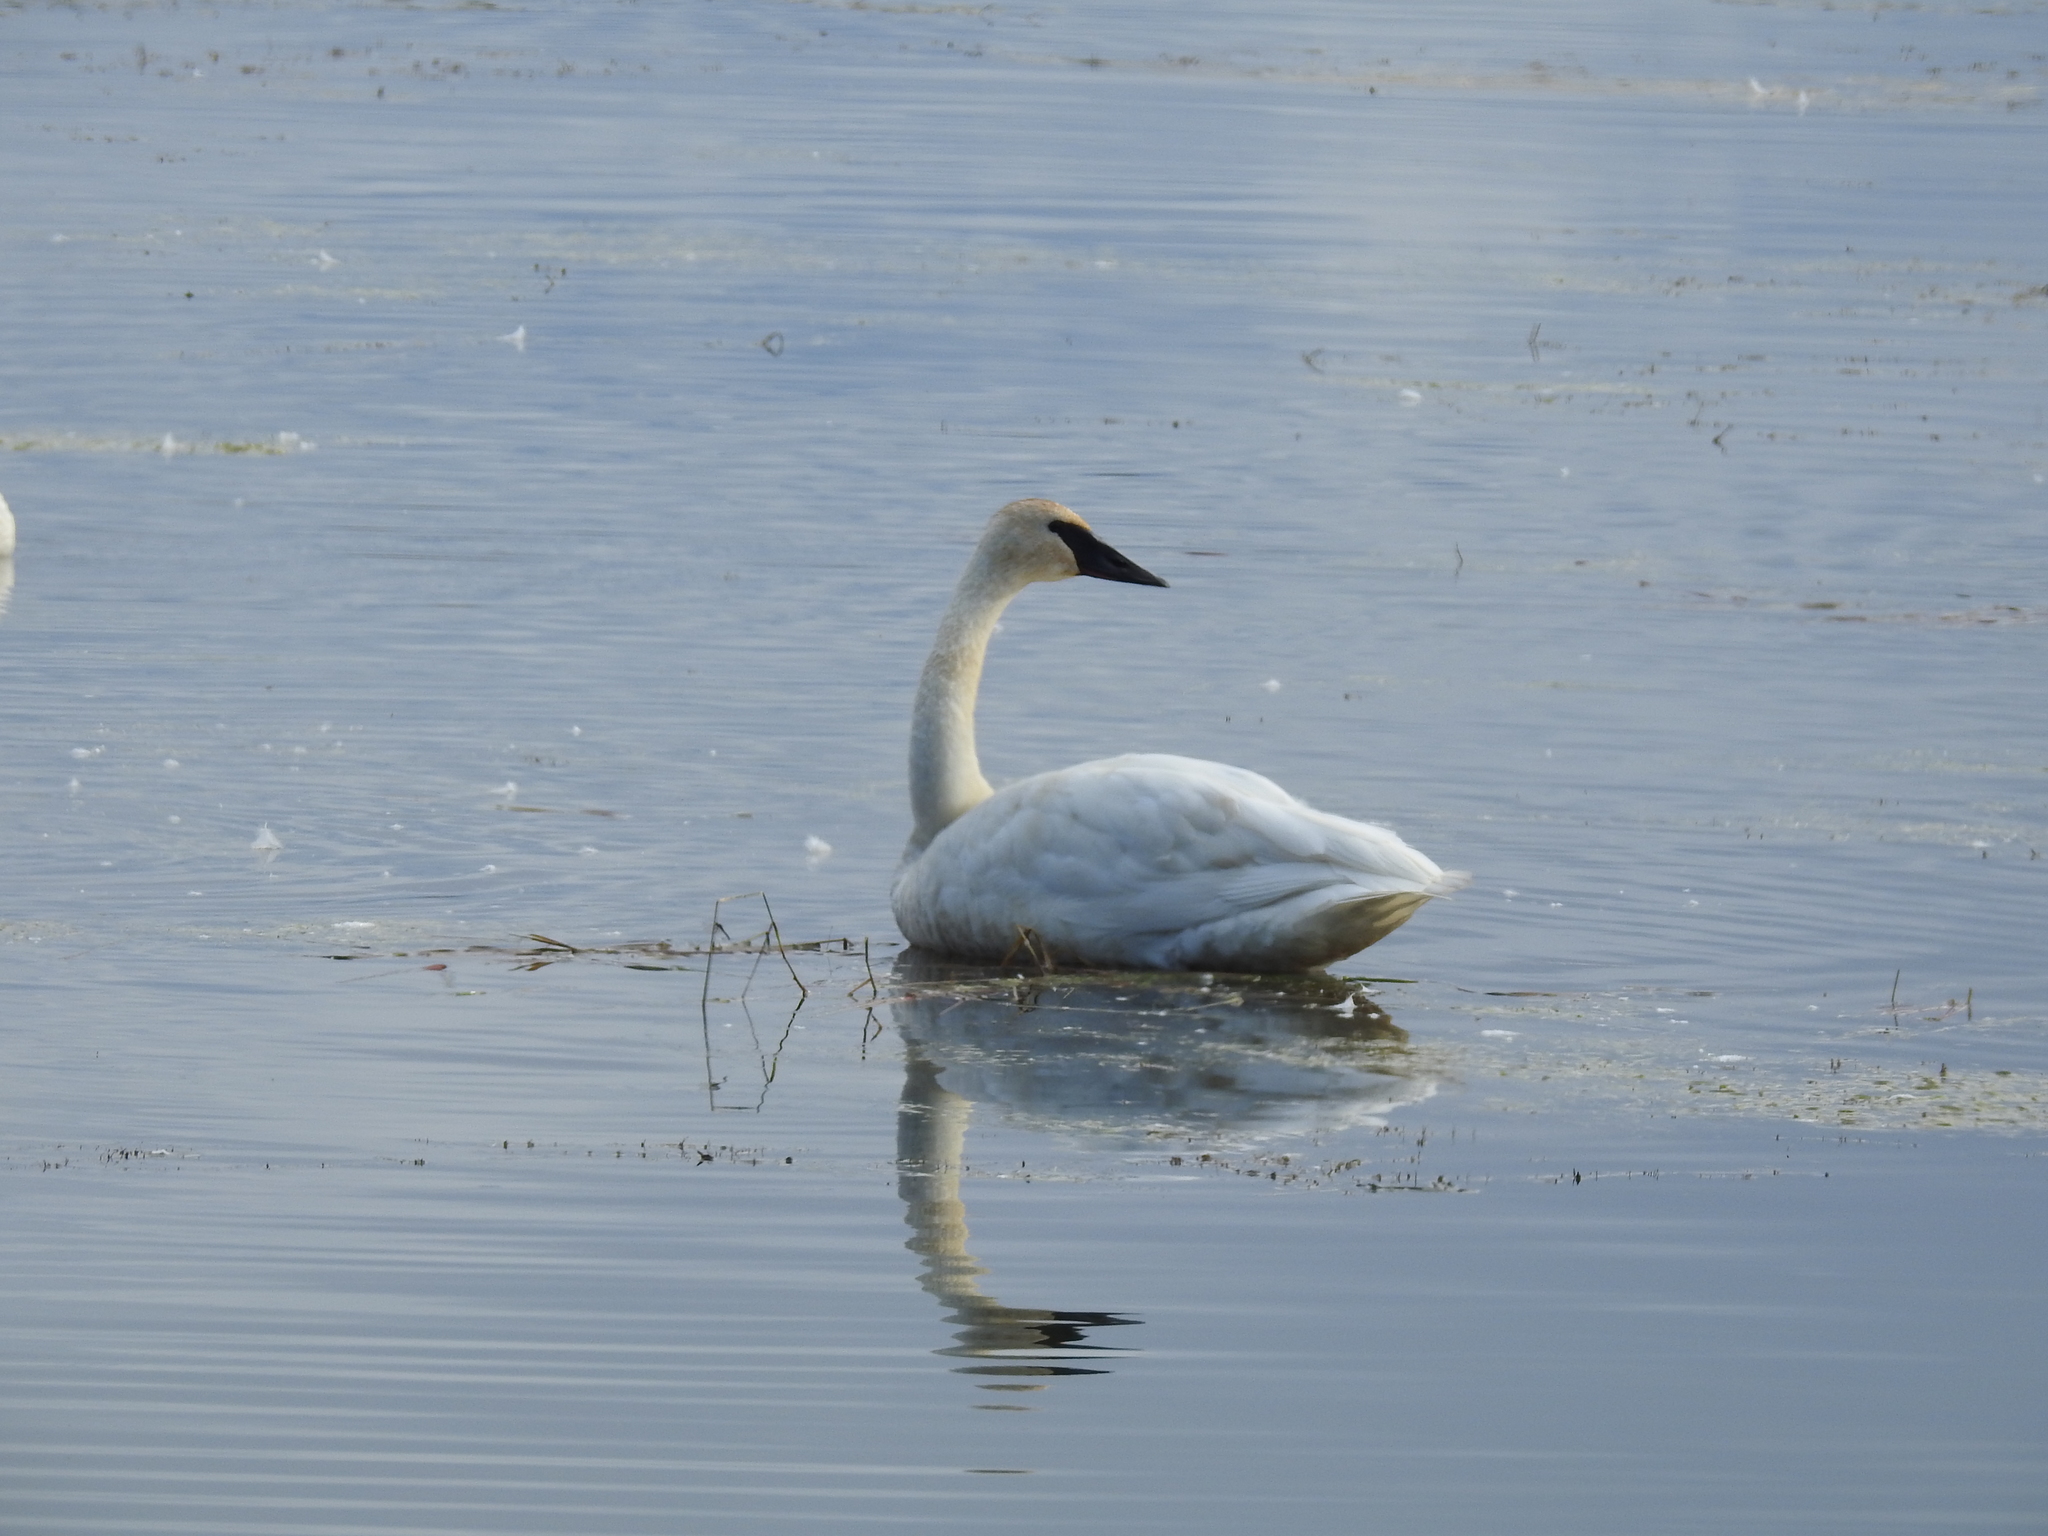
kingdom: Animalia
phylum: Chordata
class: Aves
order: Anseriformes
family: Anatidae
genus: Cygnus
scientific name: Cygnus buccinator
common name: Trumpeter swan
